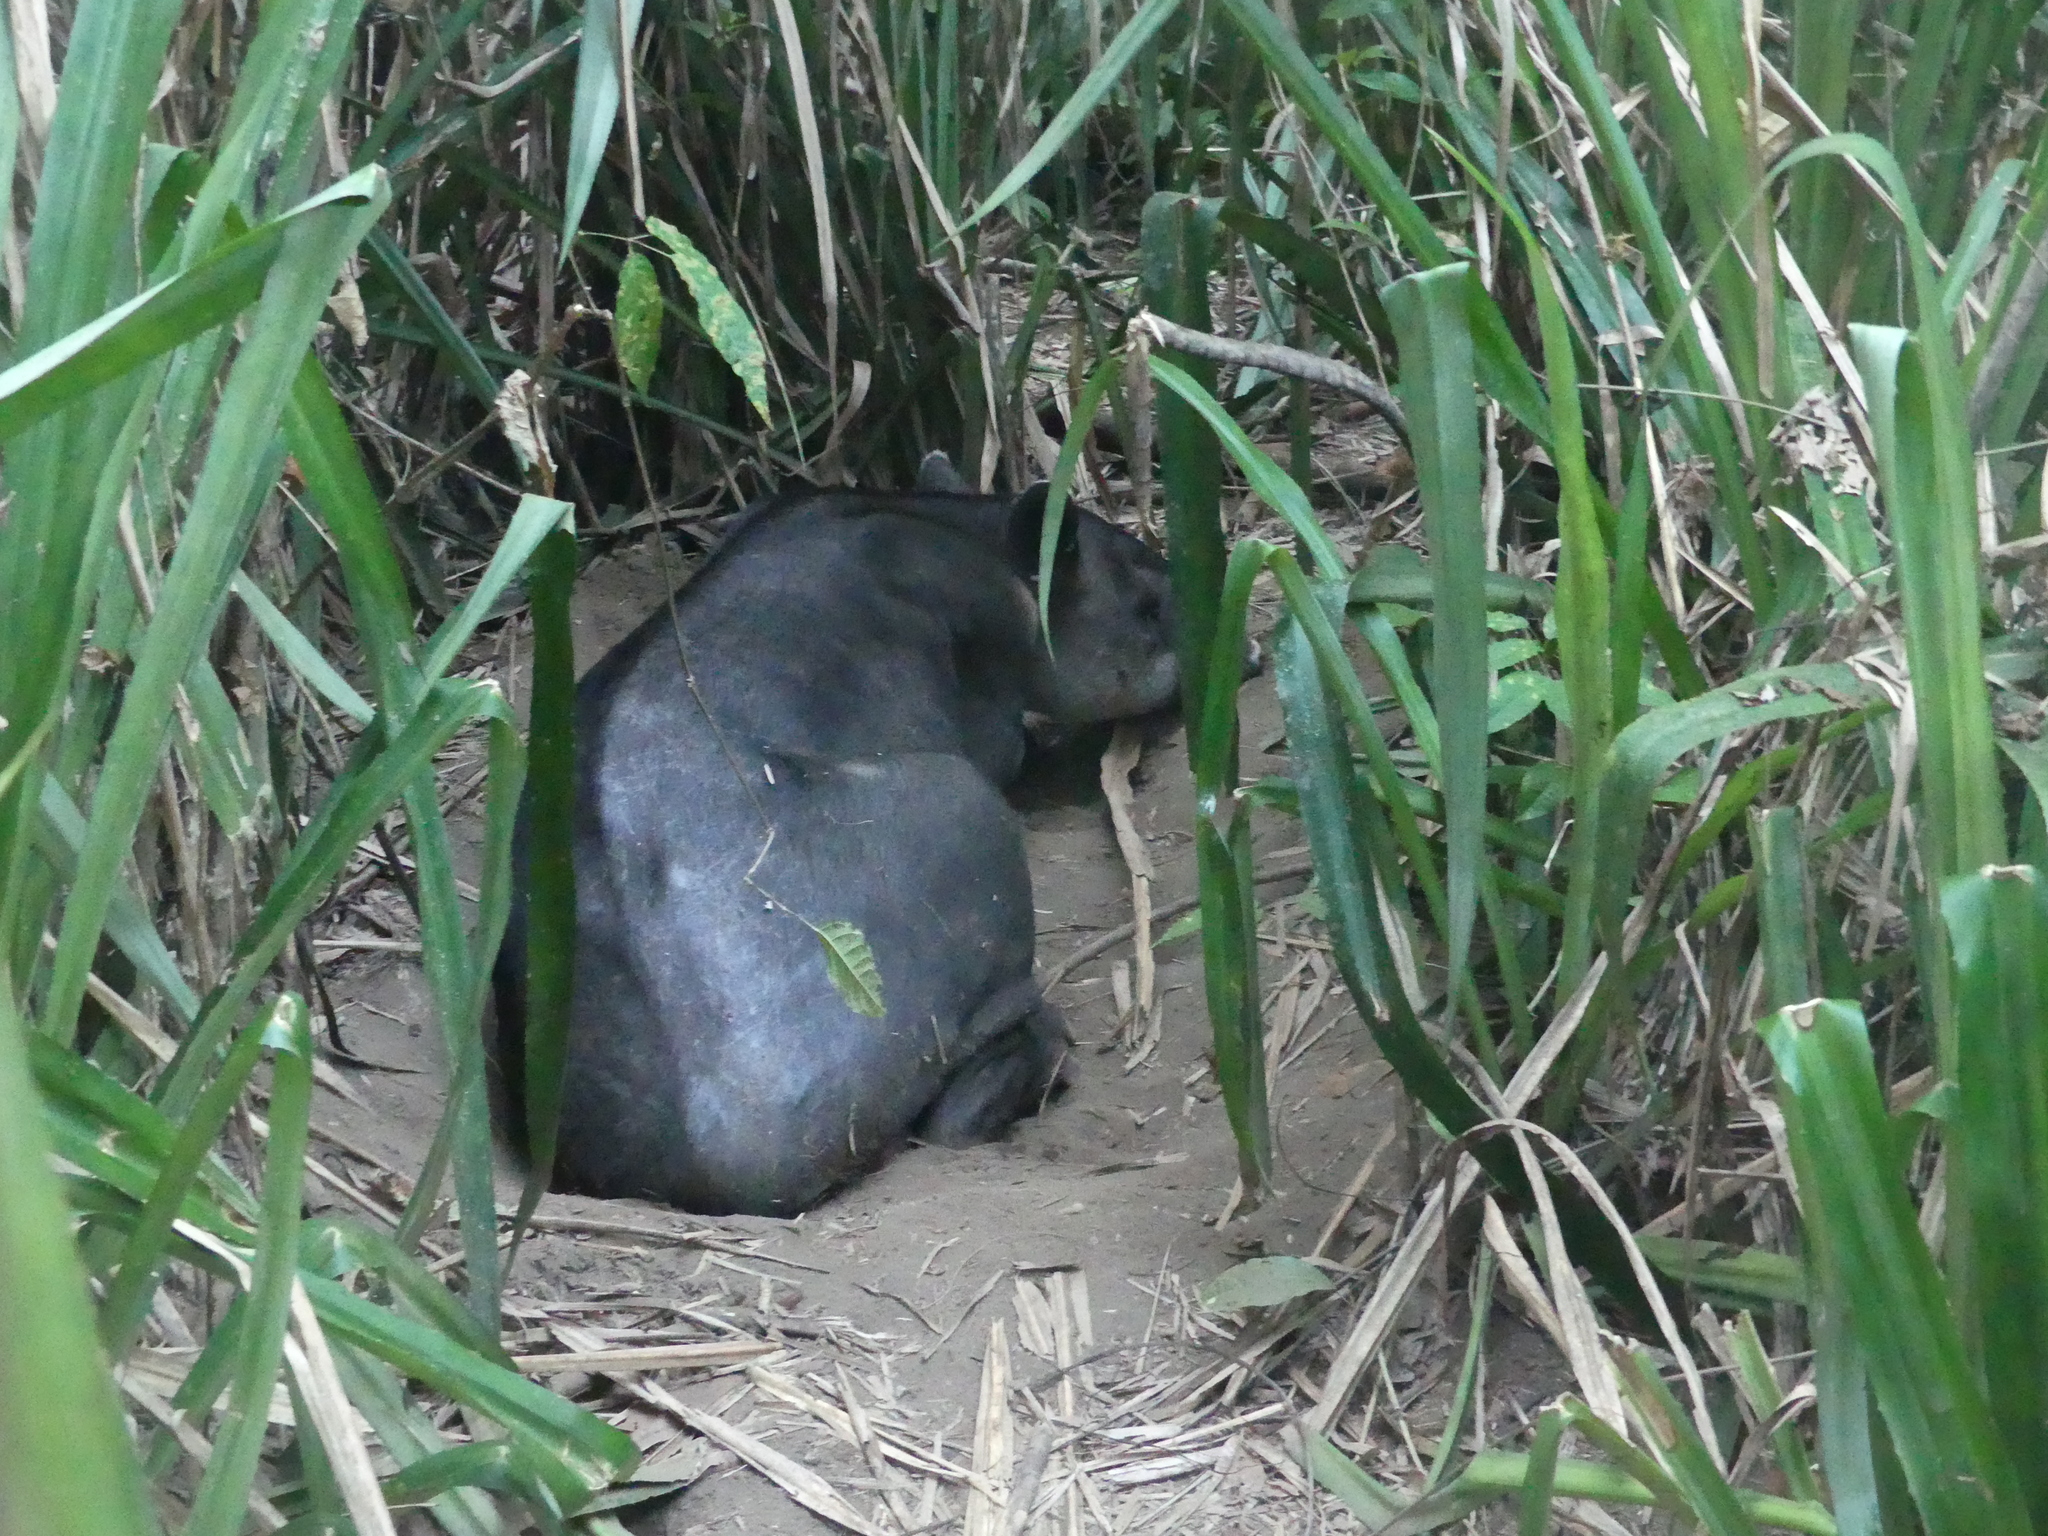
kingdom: Animalia
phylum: Chordata
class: Mammalia
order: Perissodactyla
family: Tapiridae
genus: Tapirella
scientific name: Tapirella bairdii
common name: Baird's tapir
